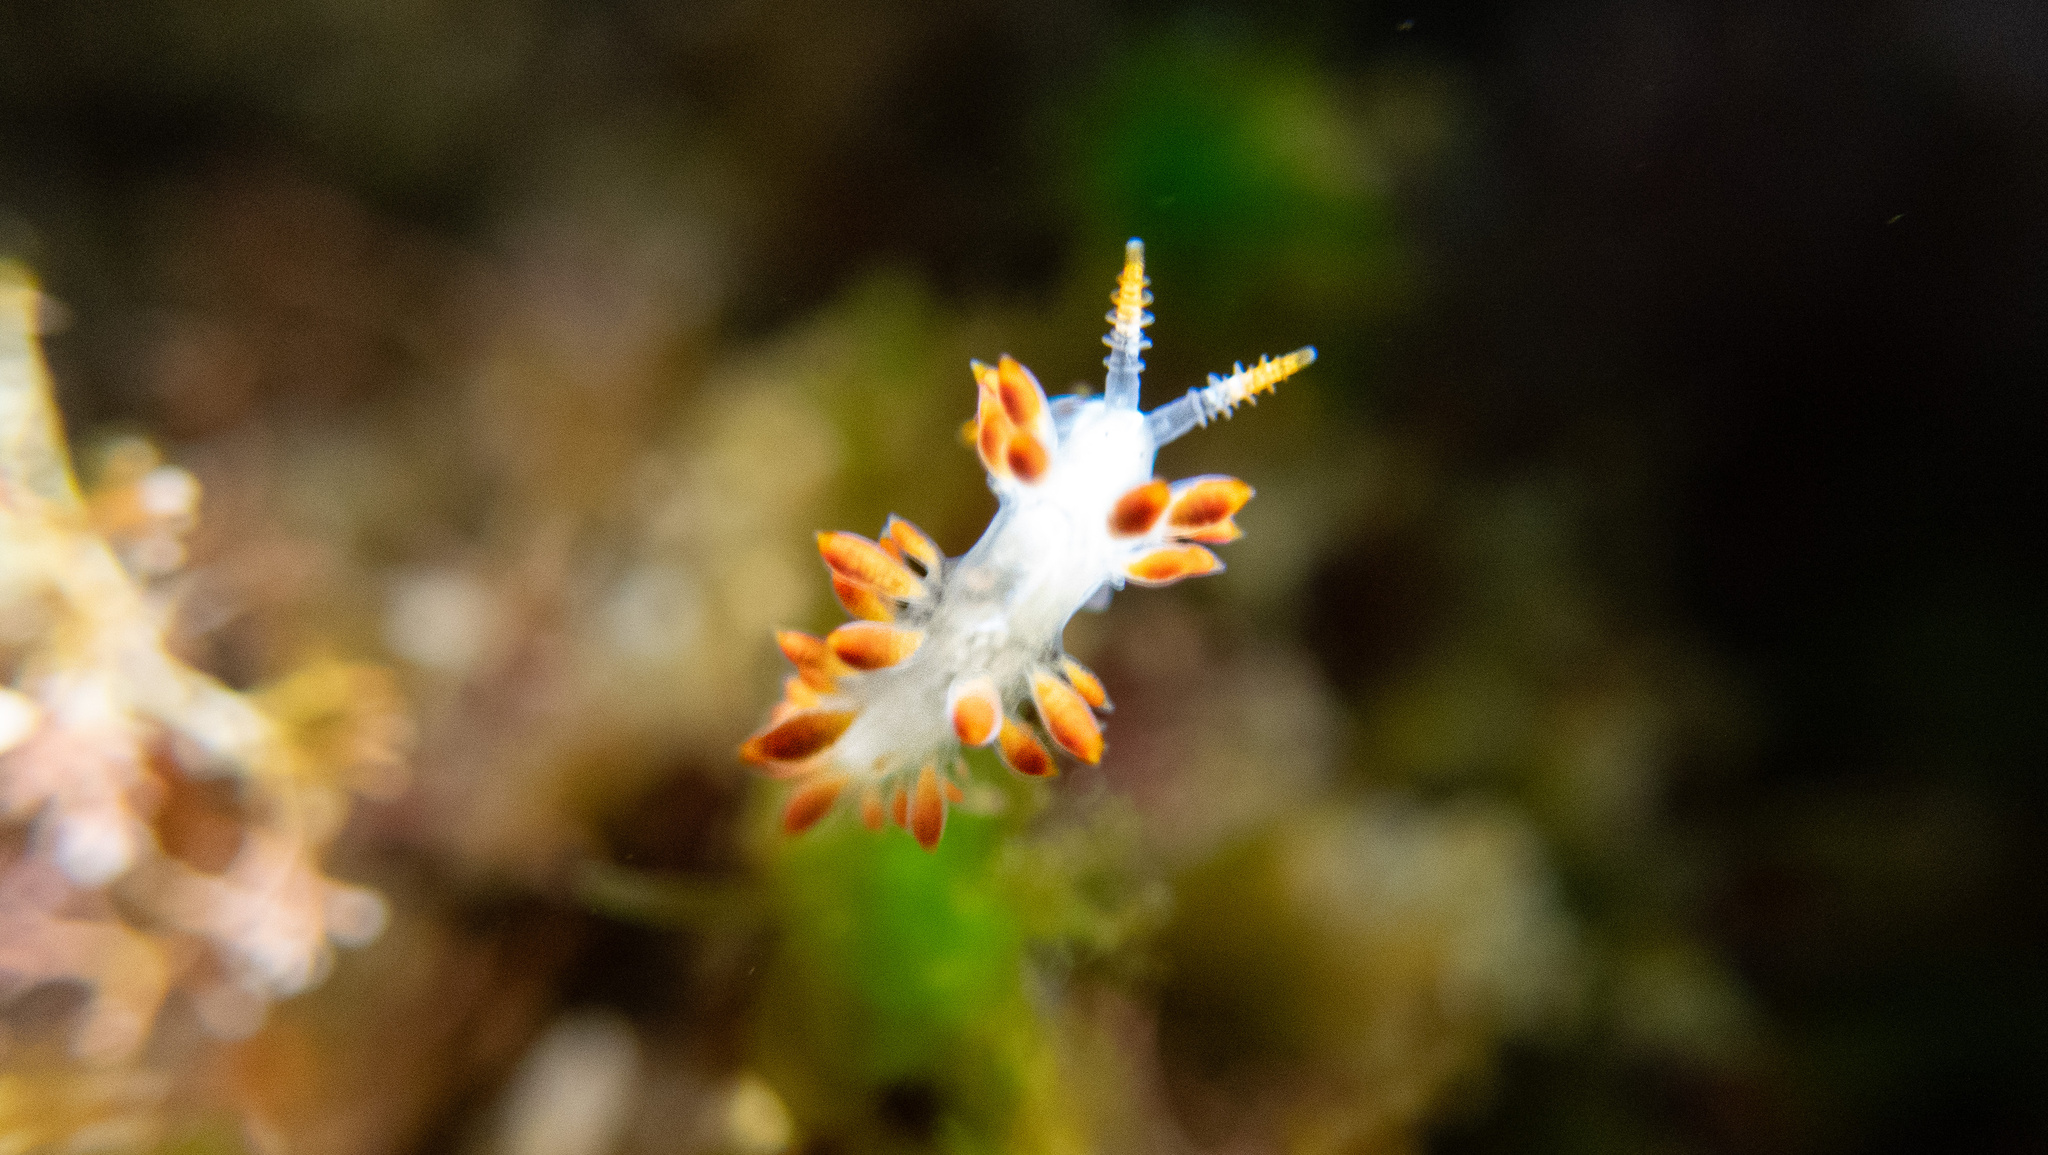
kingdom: Animalia
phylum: Mollusca
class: Gastropoda
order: Nudibranchia
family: Coryphellidae
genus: Coryphella
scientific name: Coryphella trilineata
